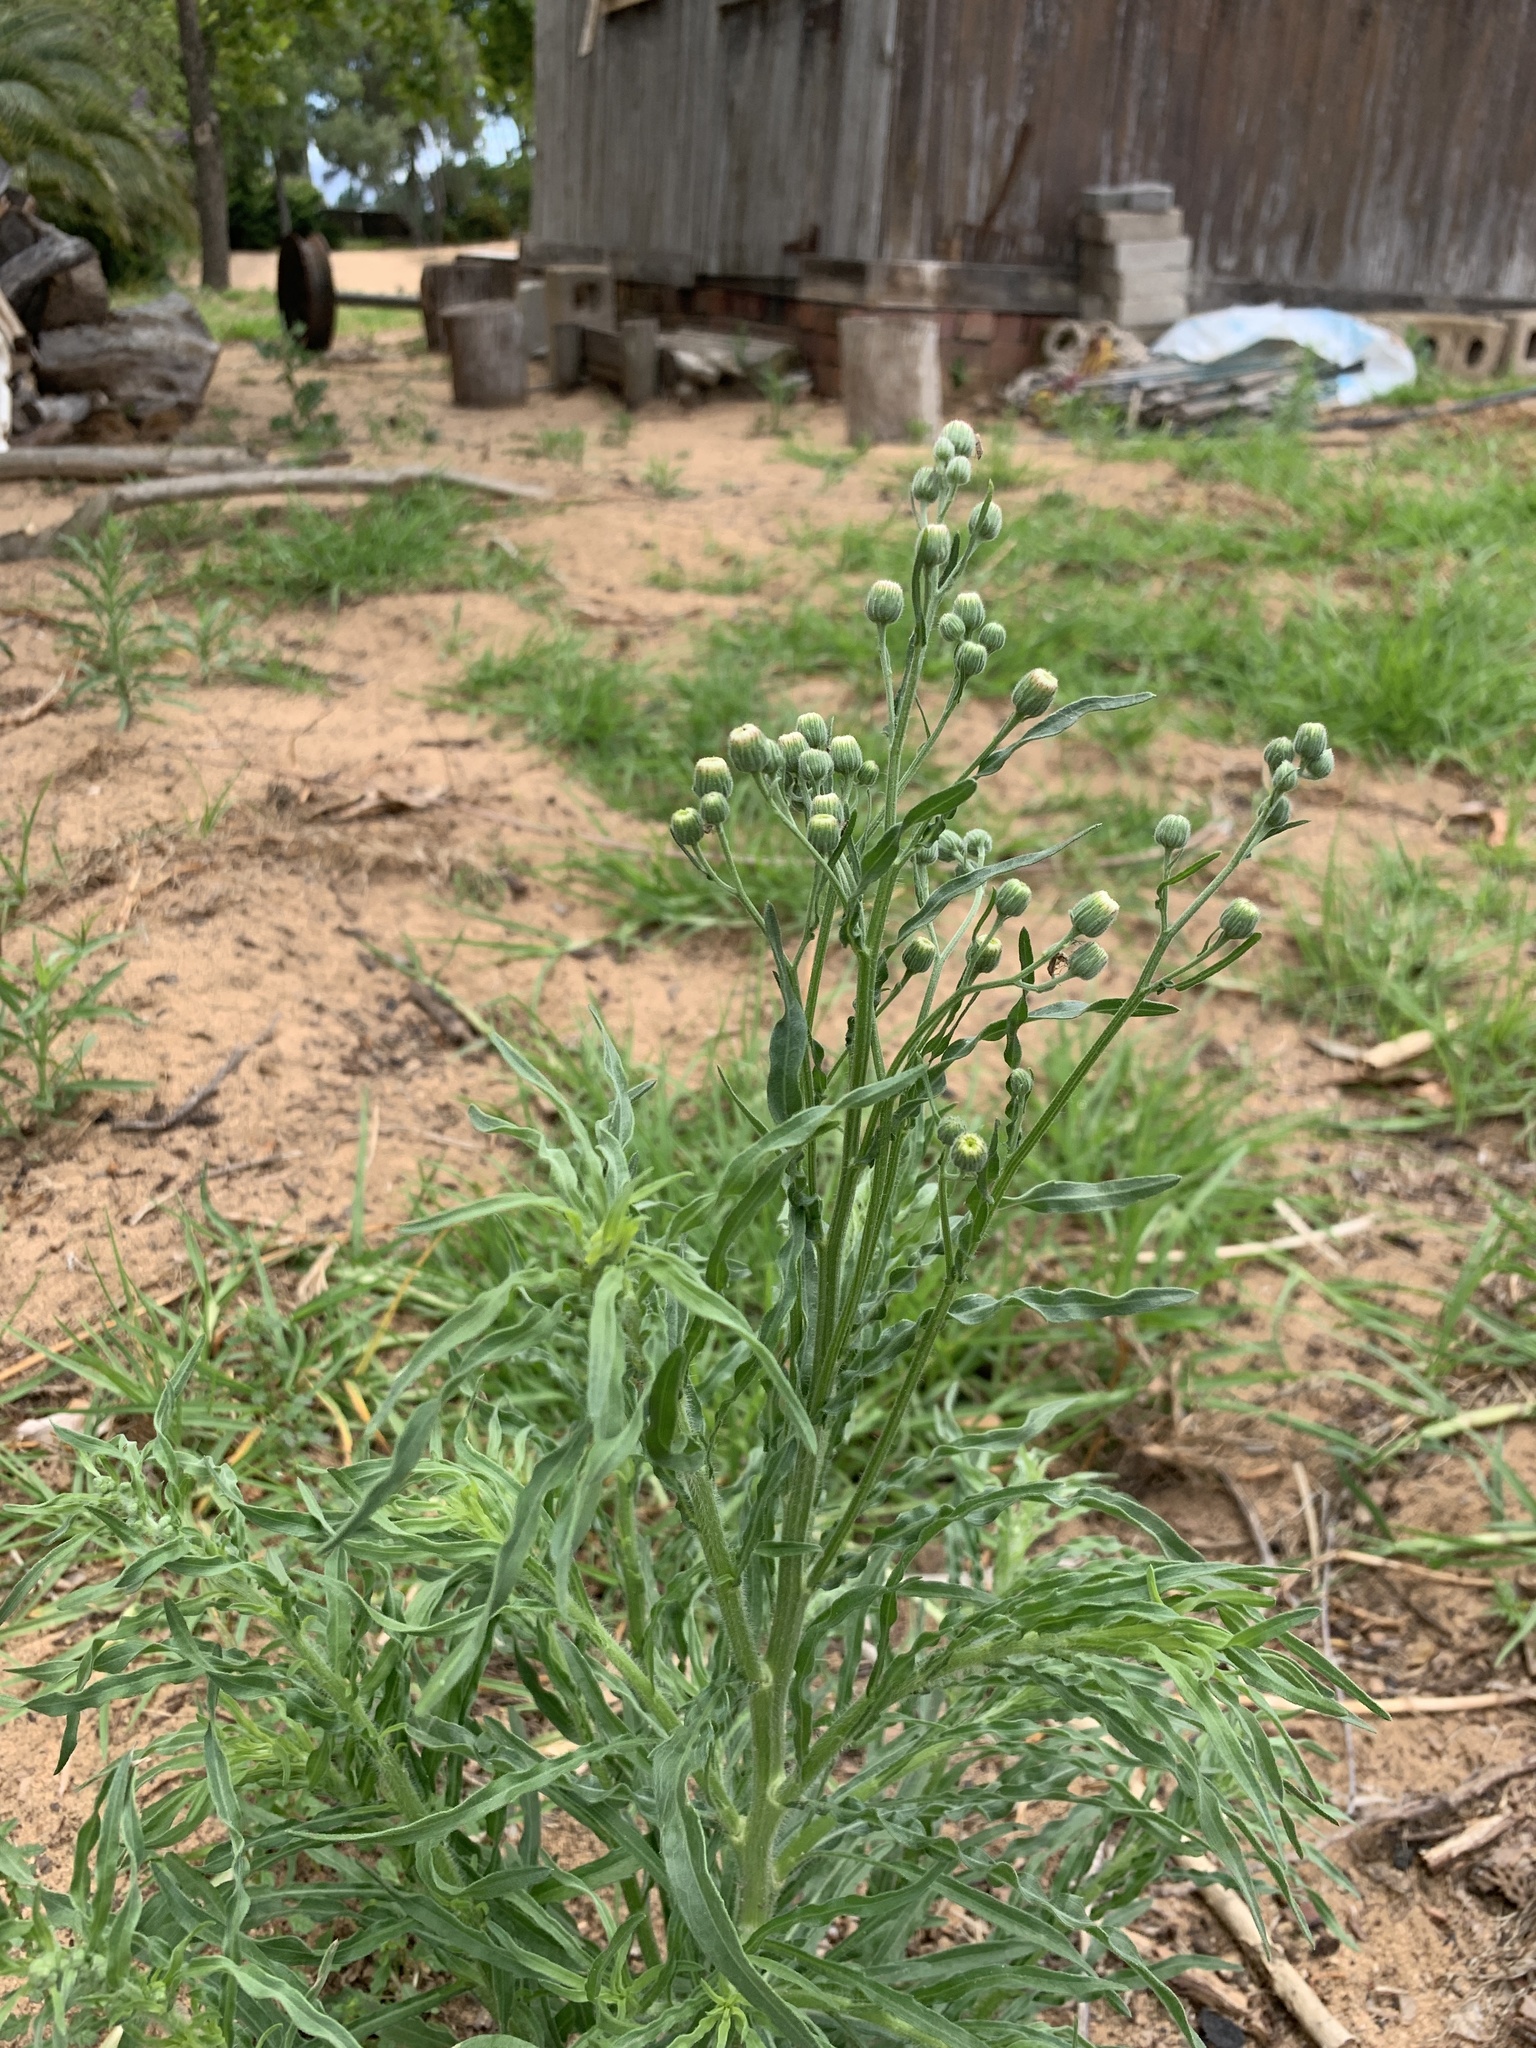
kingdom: Plantae
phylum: Tracheophyta
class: Magnoliopsida
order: Asterales
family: Asteraceae
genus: Erigeron
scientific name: Erigeron bonariensis
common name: Argentine fleabane
